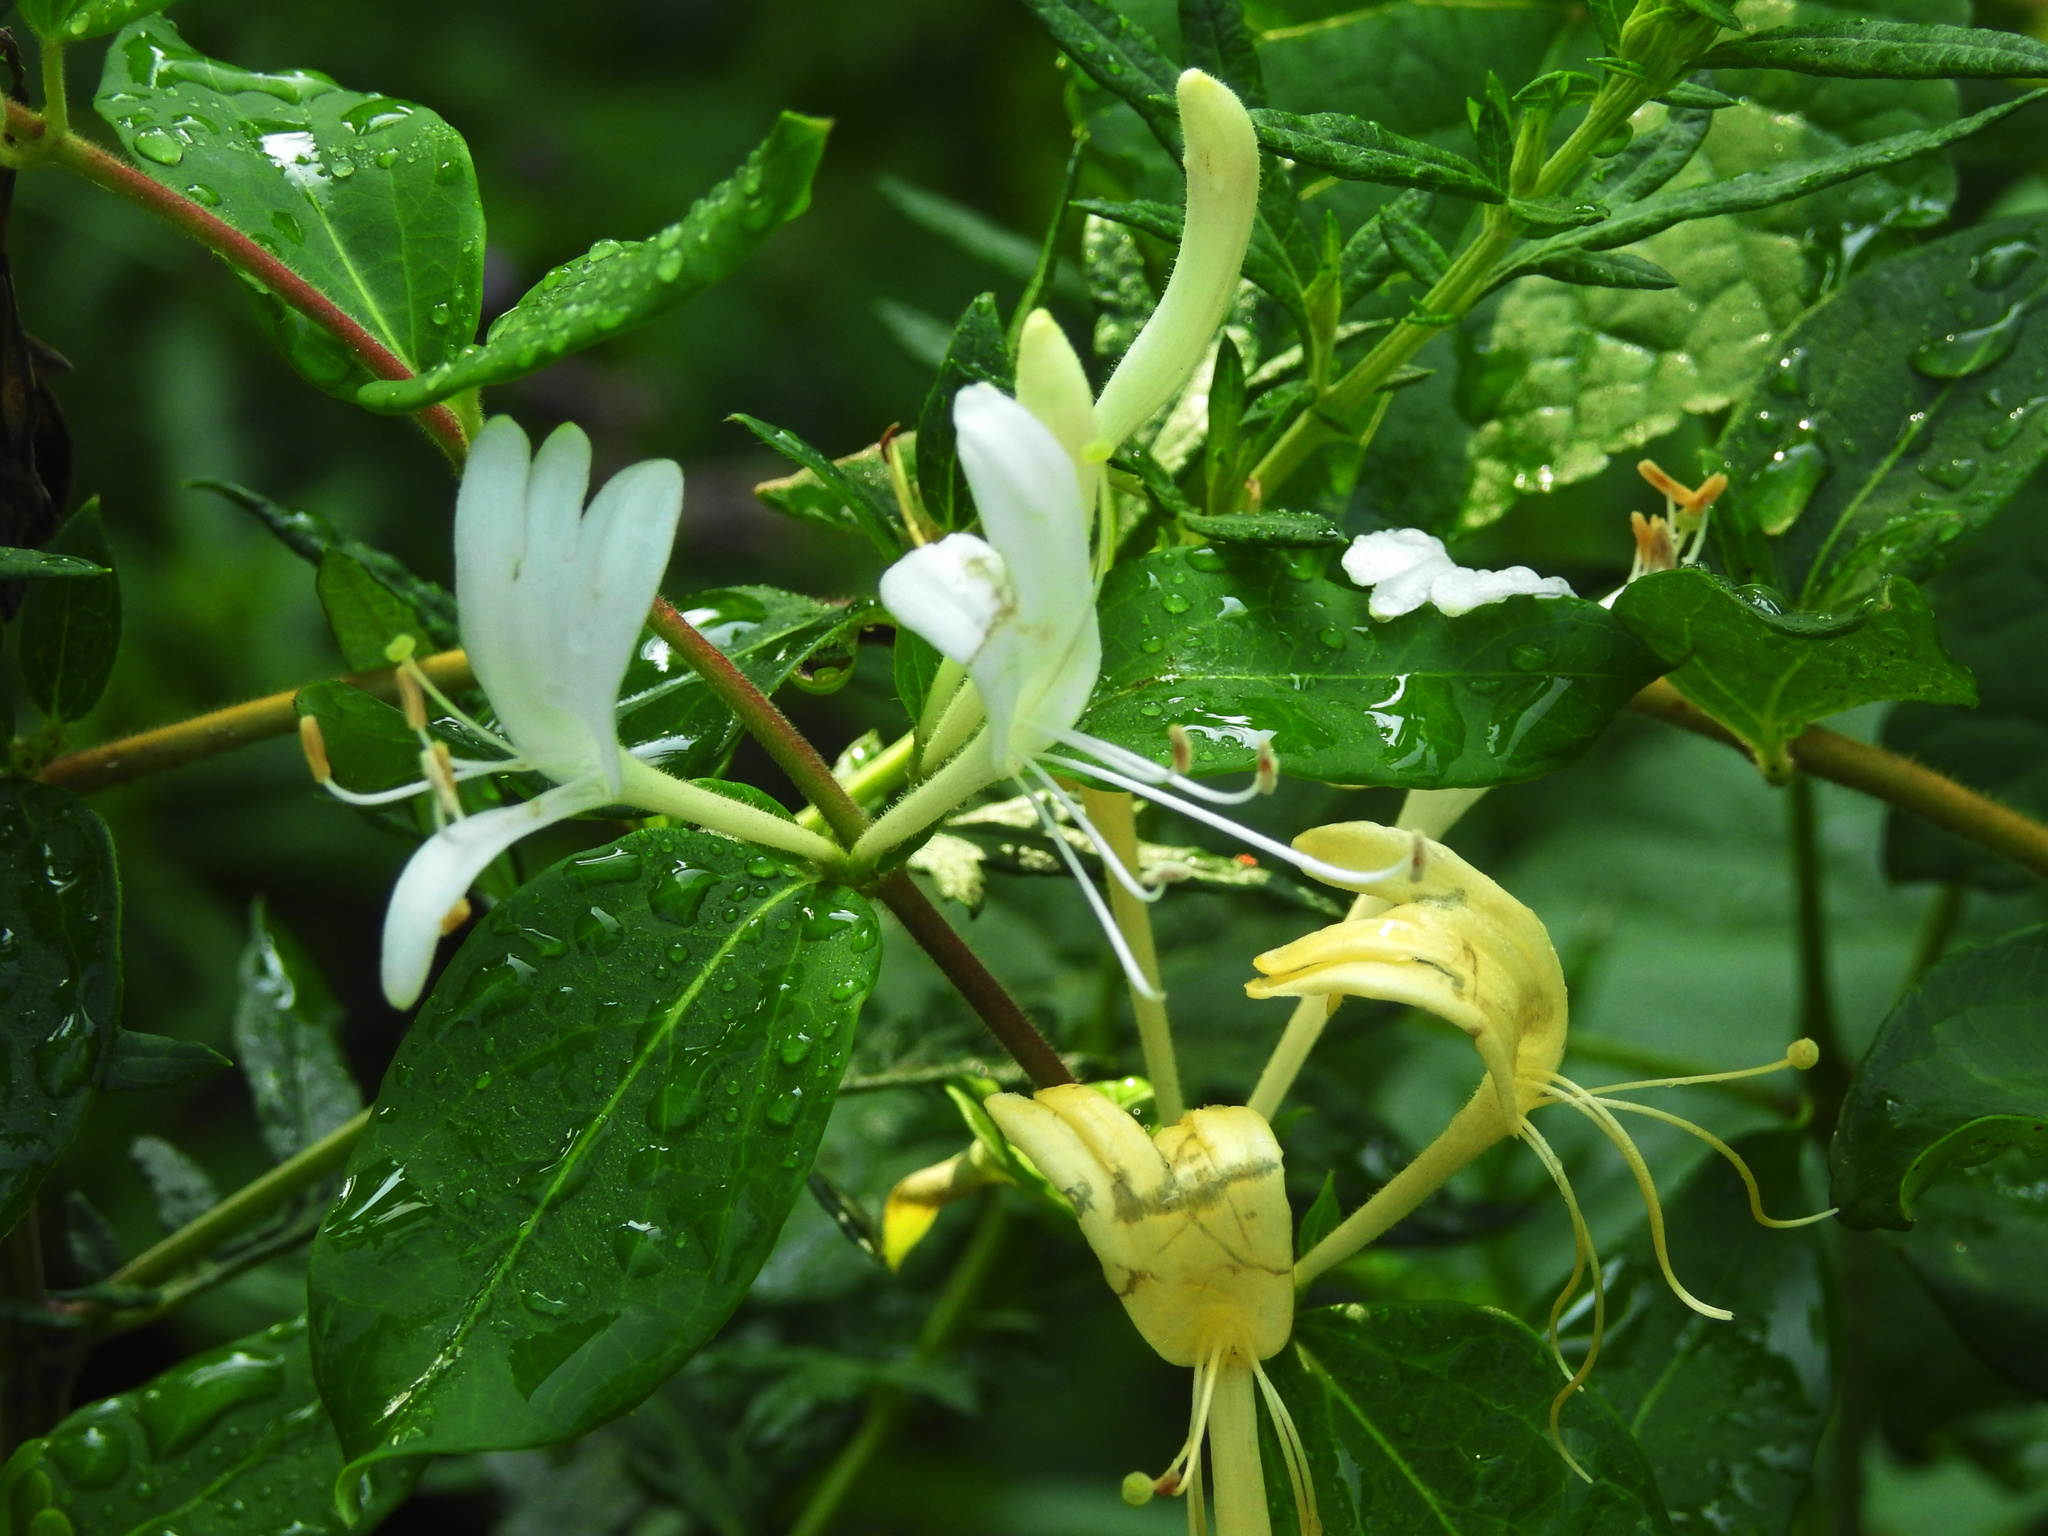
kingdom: Plantae
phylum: Tracheophyta
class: Magnoliopsida
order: Dipsacales
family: Caprifoliaceae
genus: Lonicera
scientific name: Lonicera japonica
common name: Japanese honeysuckle
